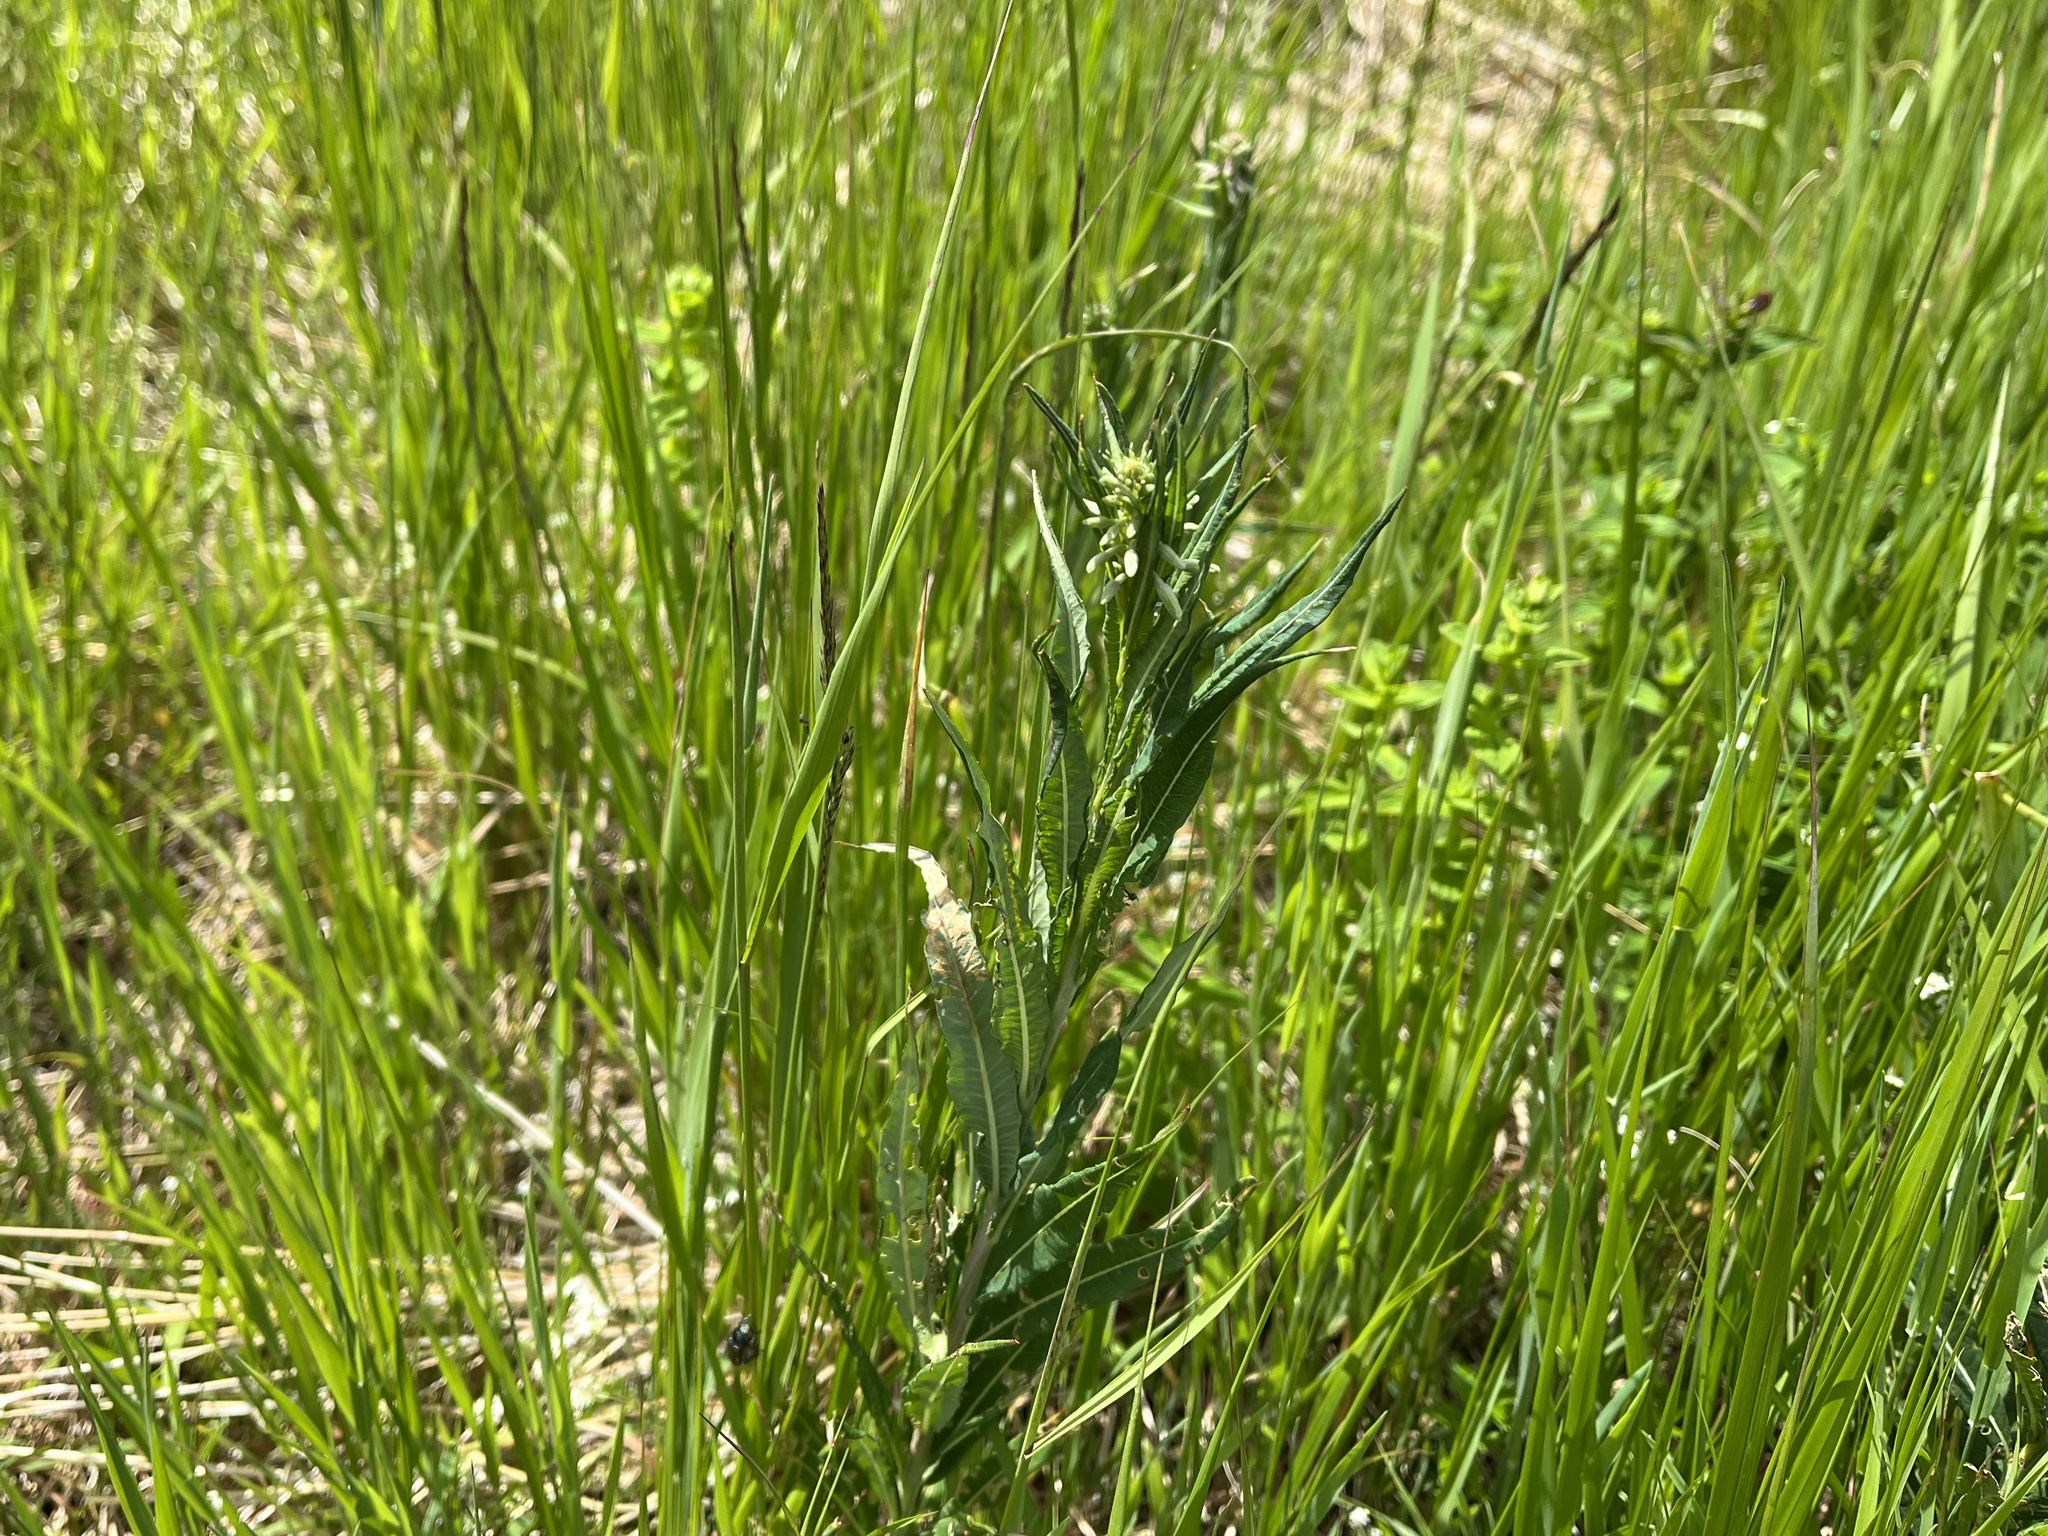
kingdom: Plantae
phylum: Tracheophyta
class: Magnoliopsida
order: Myrtales
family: Onagraceae
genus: Chamaenerion
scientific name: Chamaenerion angustifolium
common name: Fireweed
